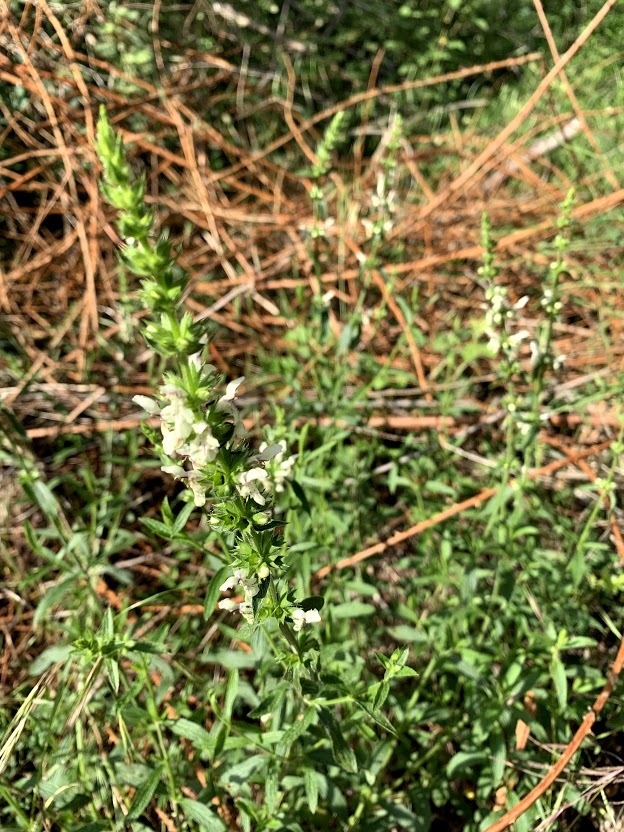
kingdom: Plantae
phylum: Tracheophyta
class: Magnoliopsida
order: Lamiales
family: Lamiaceae
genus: Stachys
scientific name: Stachys recta
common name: Perennial yellow-woundwort
